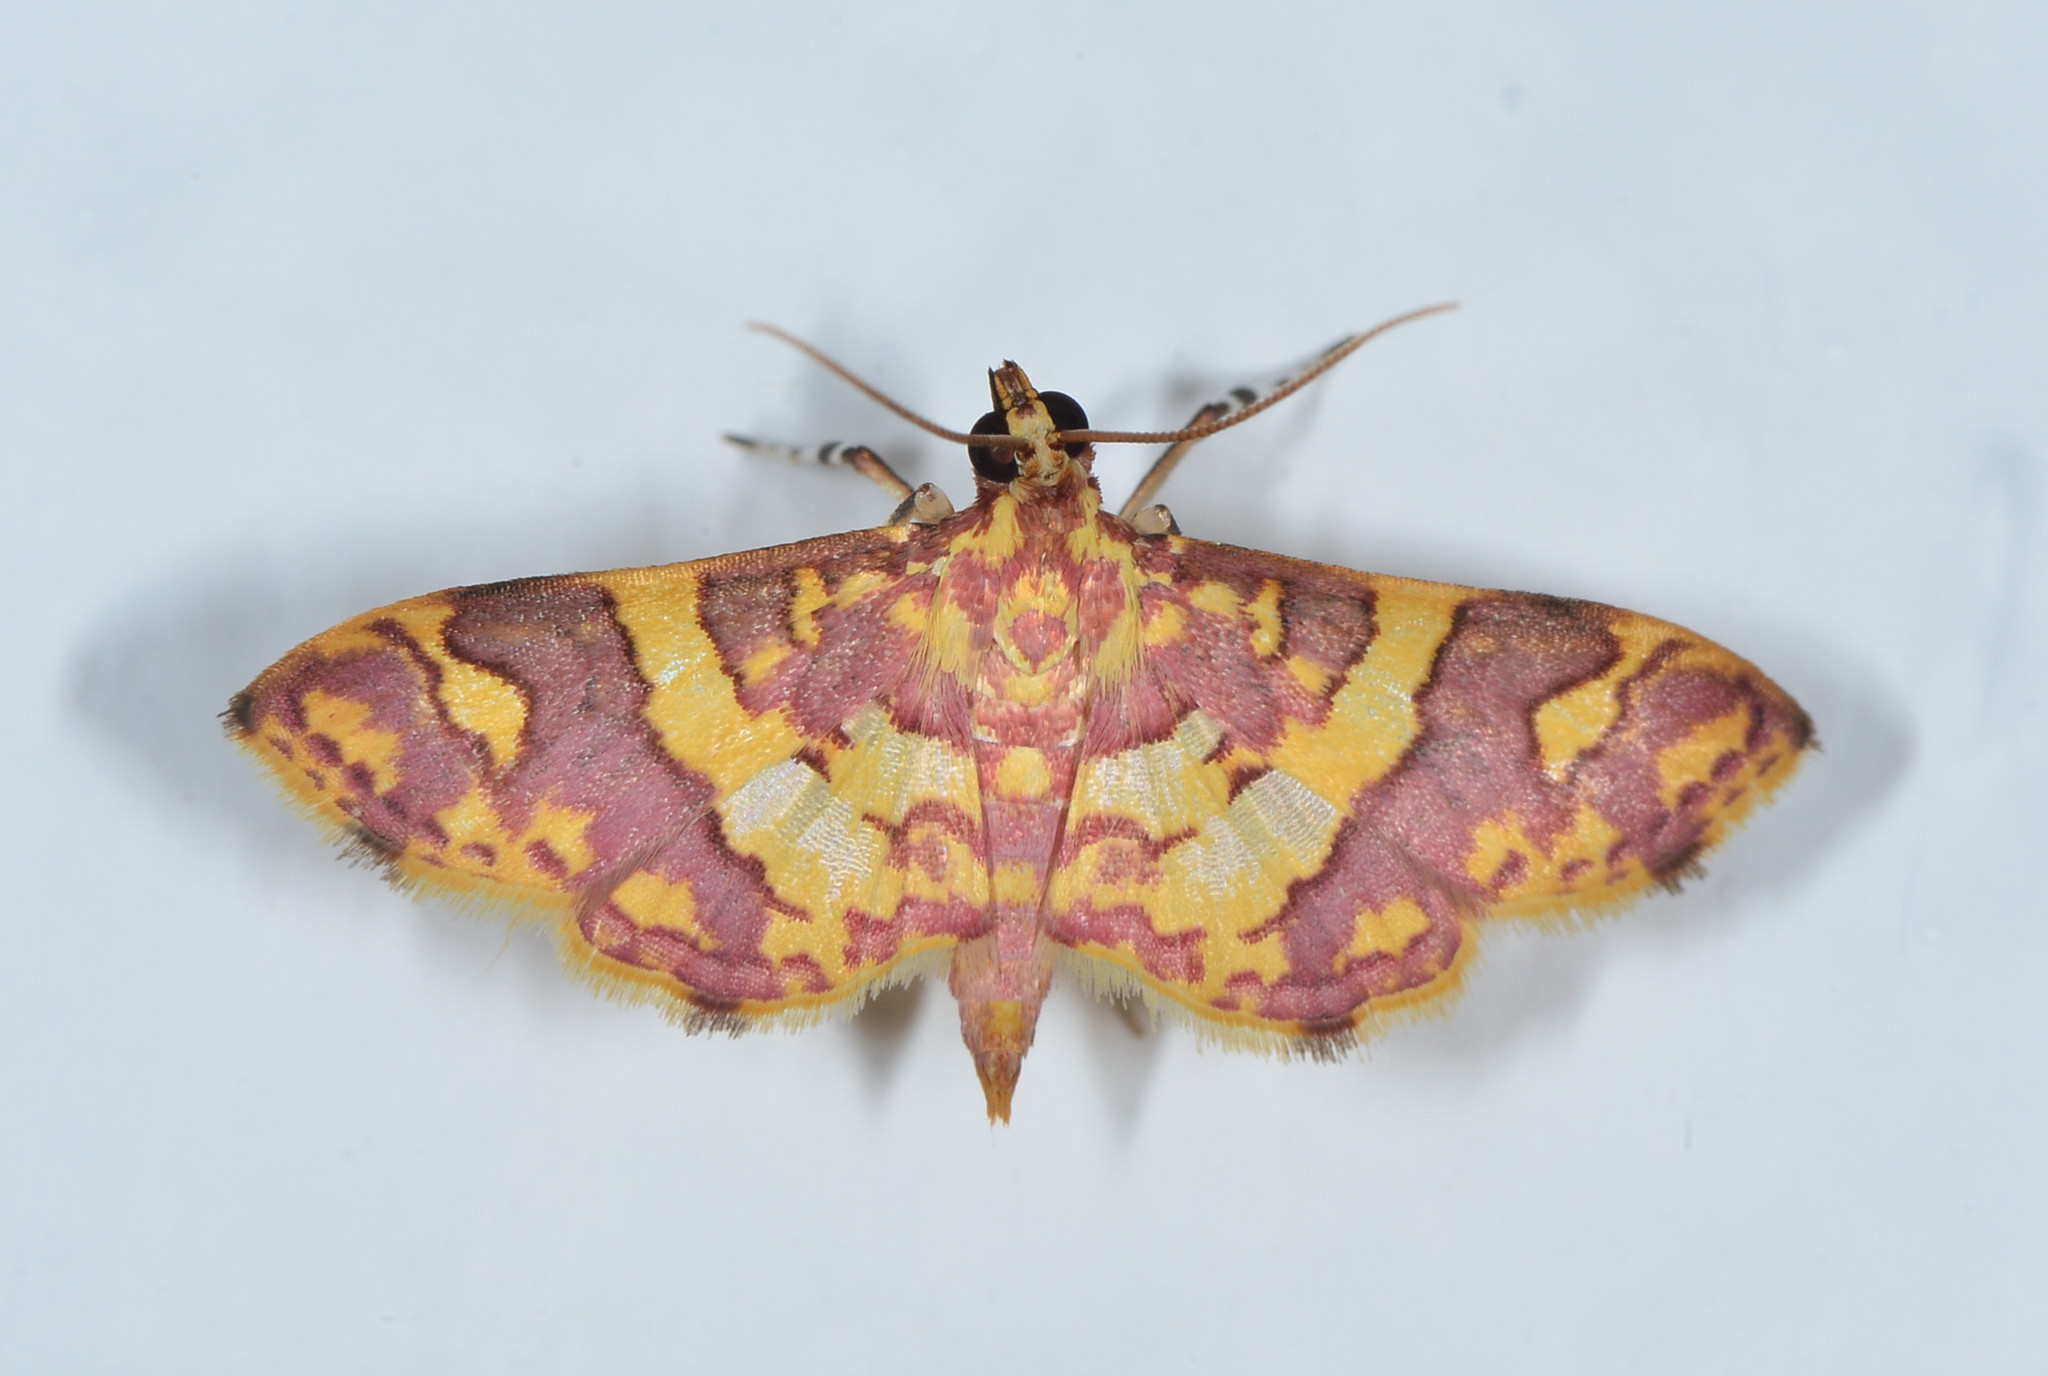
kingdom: Animalia
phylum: Arthropoda
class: Insecta
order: Lepidoptera
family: Crambidae
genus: Trithyris
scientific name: Trithyris Prenesta rubrocinctalis
